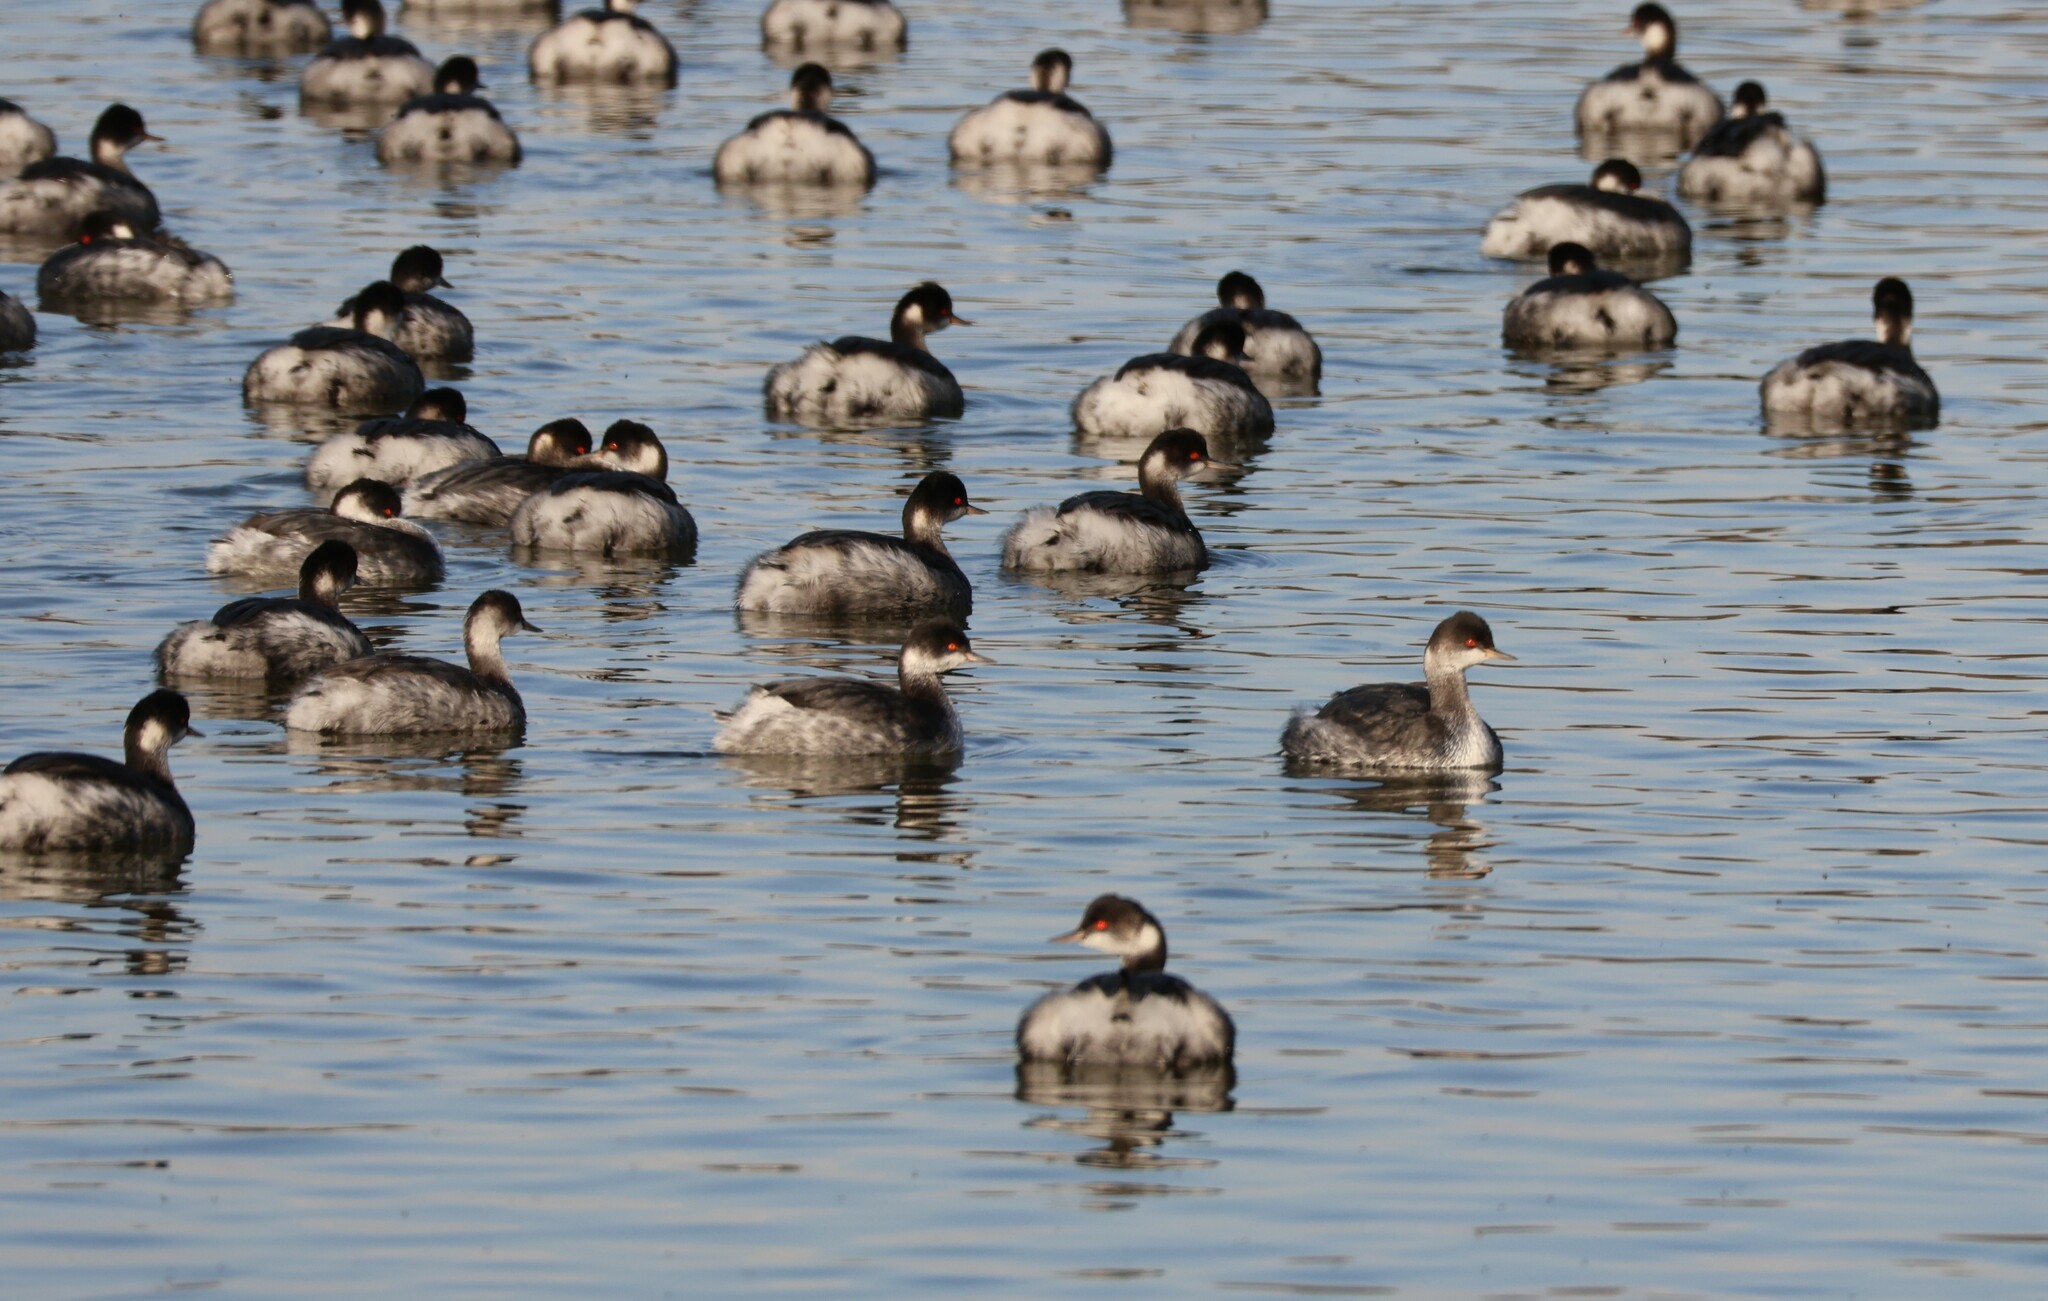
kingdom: Animalia
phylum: Chordata
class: Aves
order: Podicipediformes
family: Podicipedidae
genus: Podiceps
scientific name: Podiceps nigricollis
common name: Black-necked grebe
